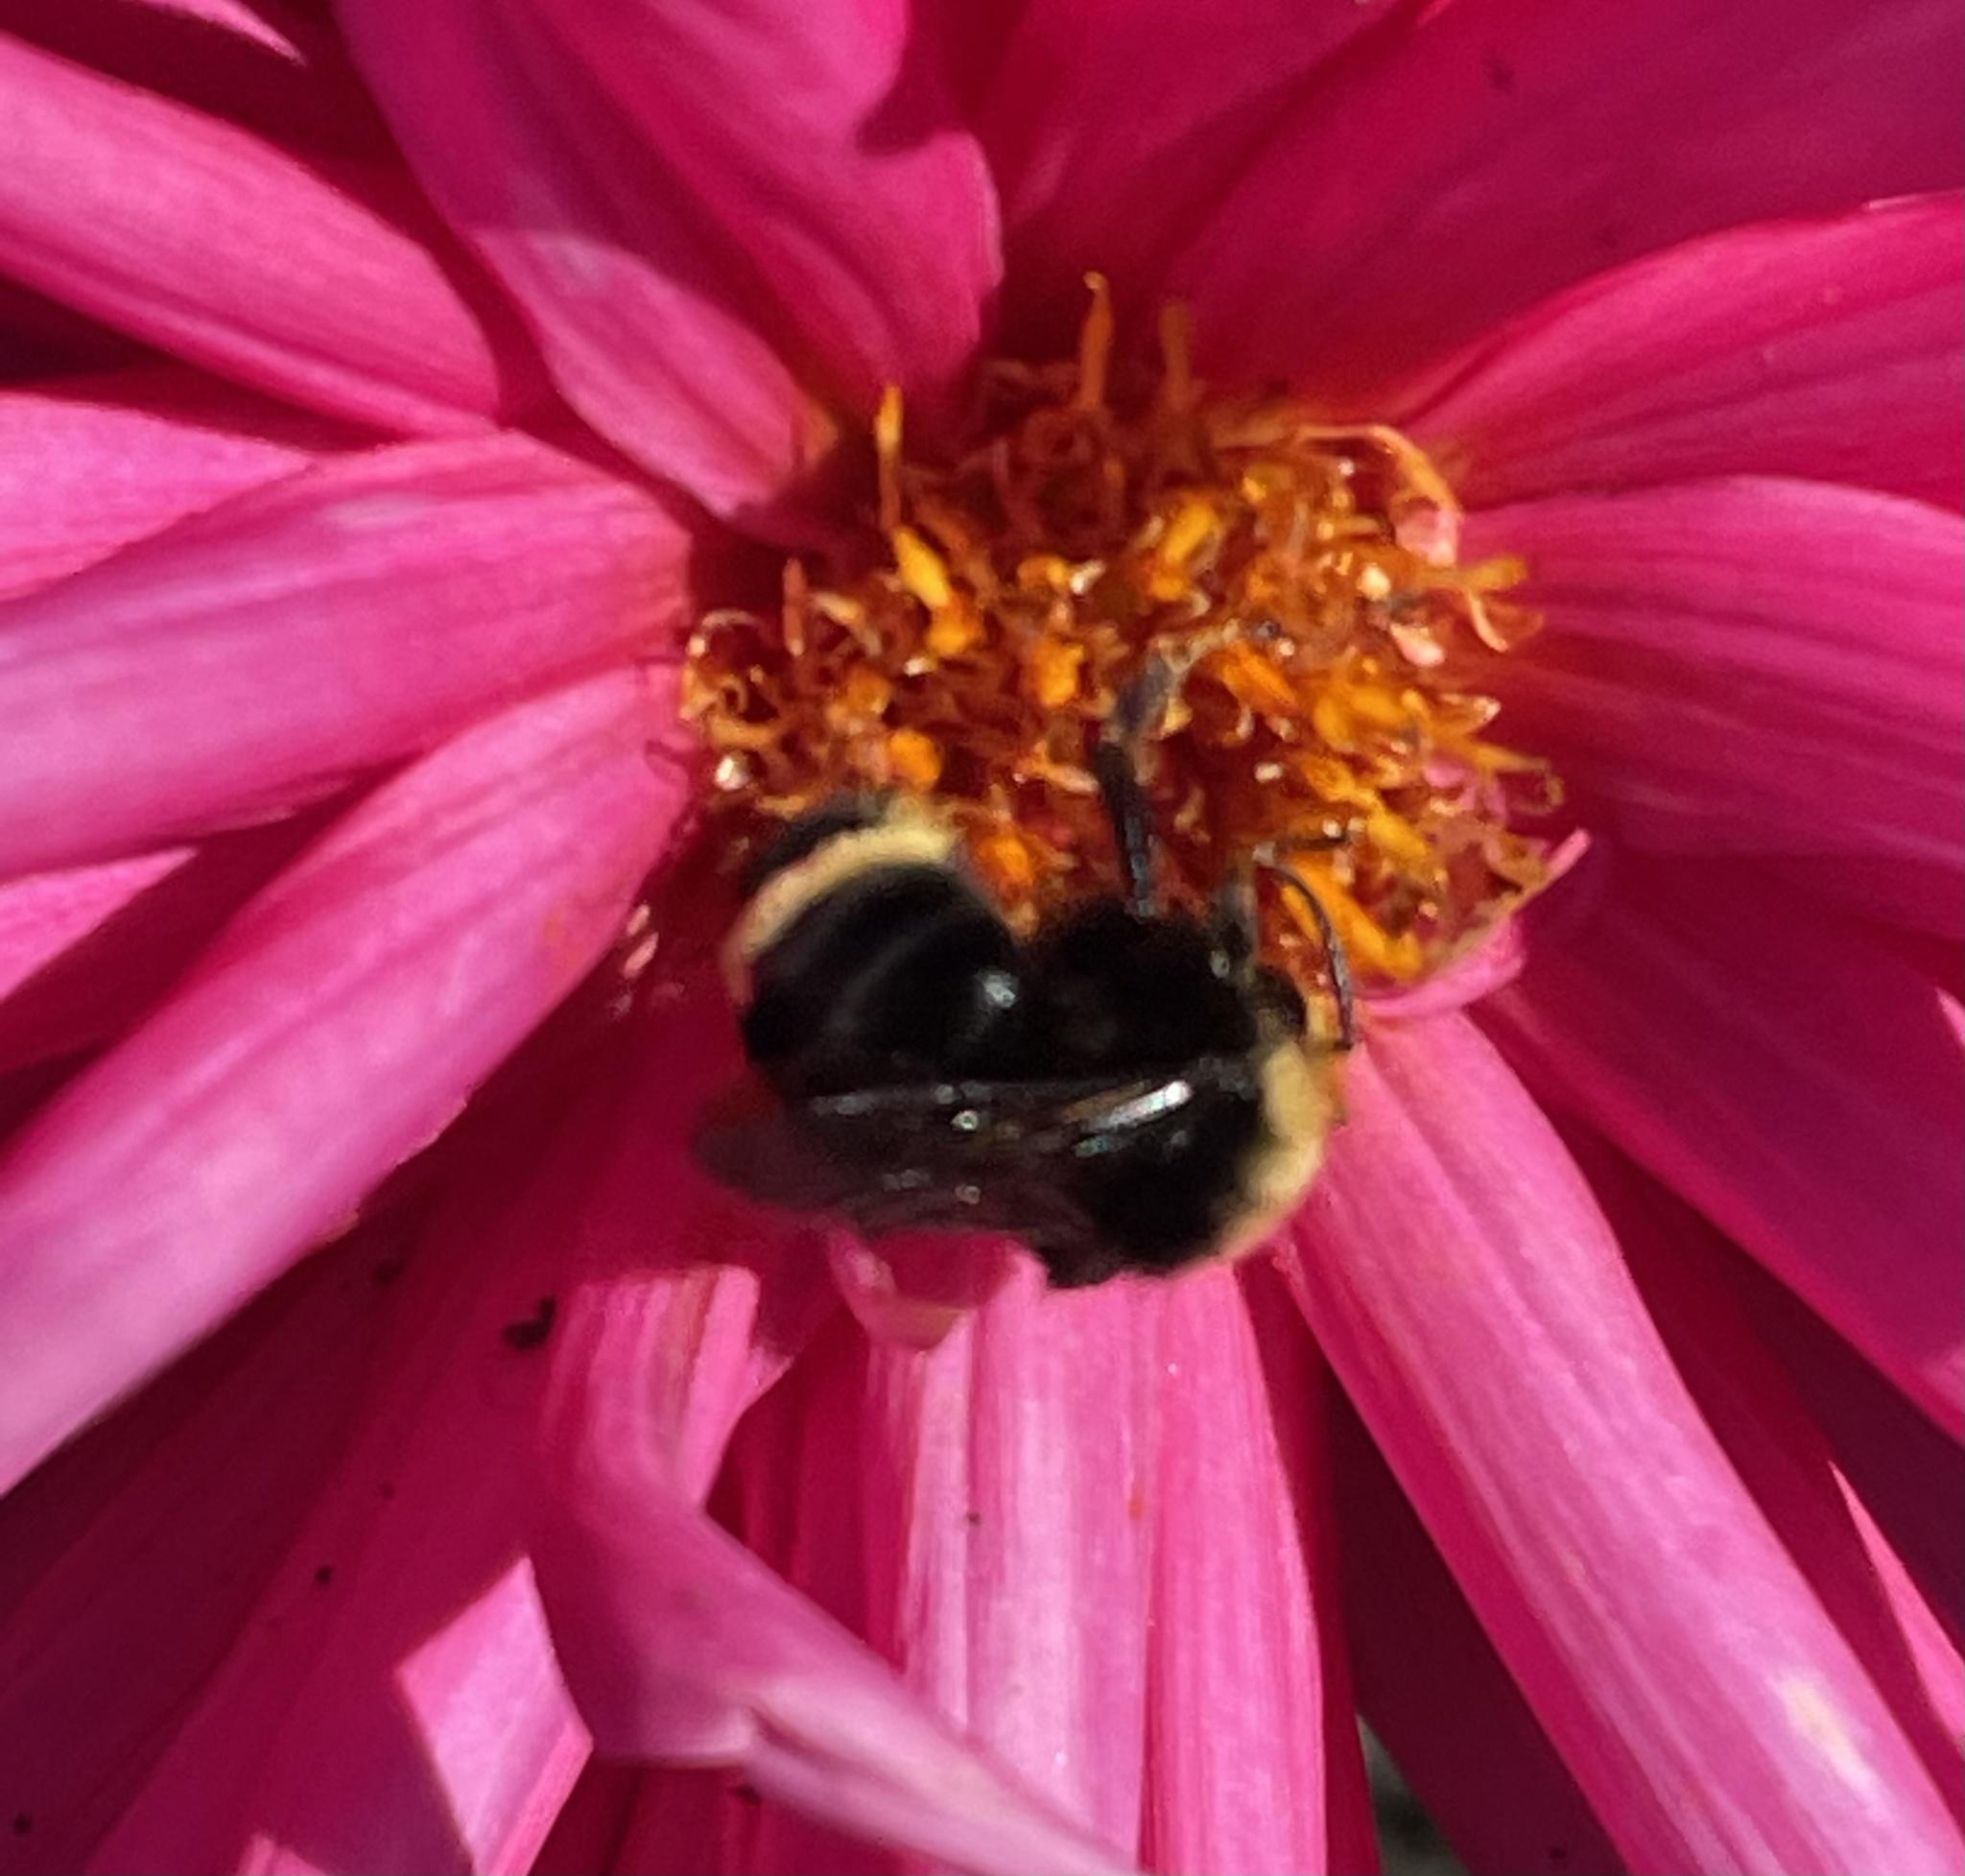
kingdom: Animalia
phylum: Arthropoda
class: Insecta
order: Hymenoptera
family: Apidae
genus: Bombus
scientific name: Bombus vosnesenskii
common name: Vosnesensky bumble bee
